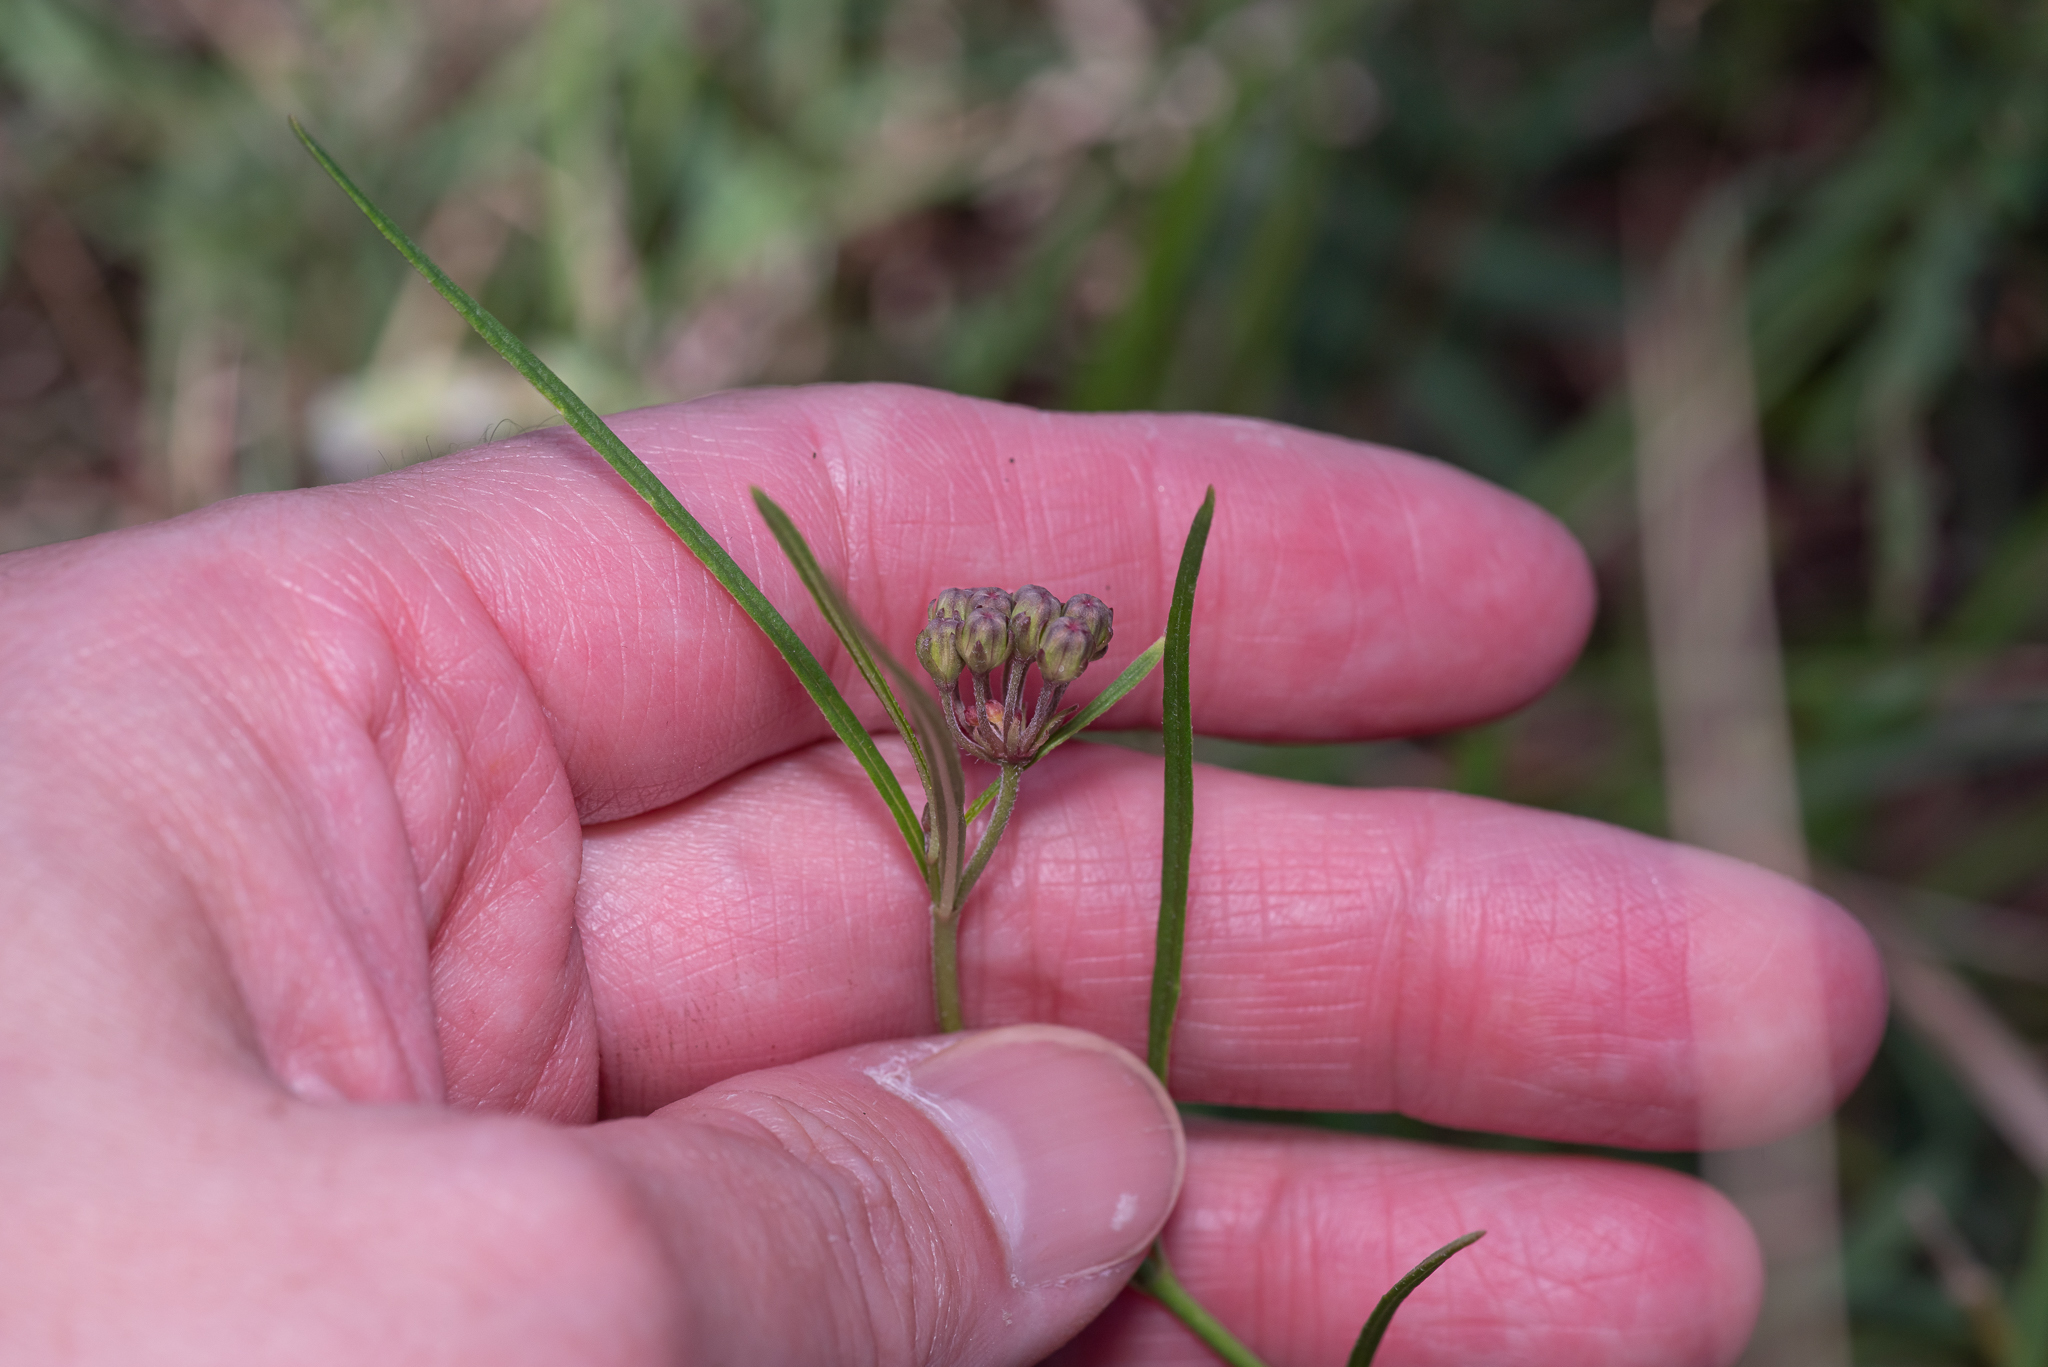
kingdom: Plantae
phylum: Tracheophyta
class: Magnoliopsida
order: Gentianales
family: Apocynaceae
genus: Asclepias
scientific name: Asclepias linearis
